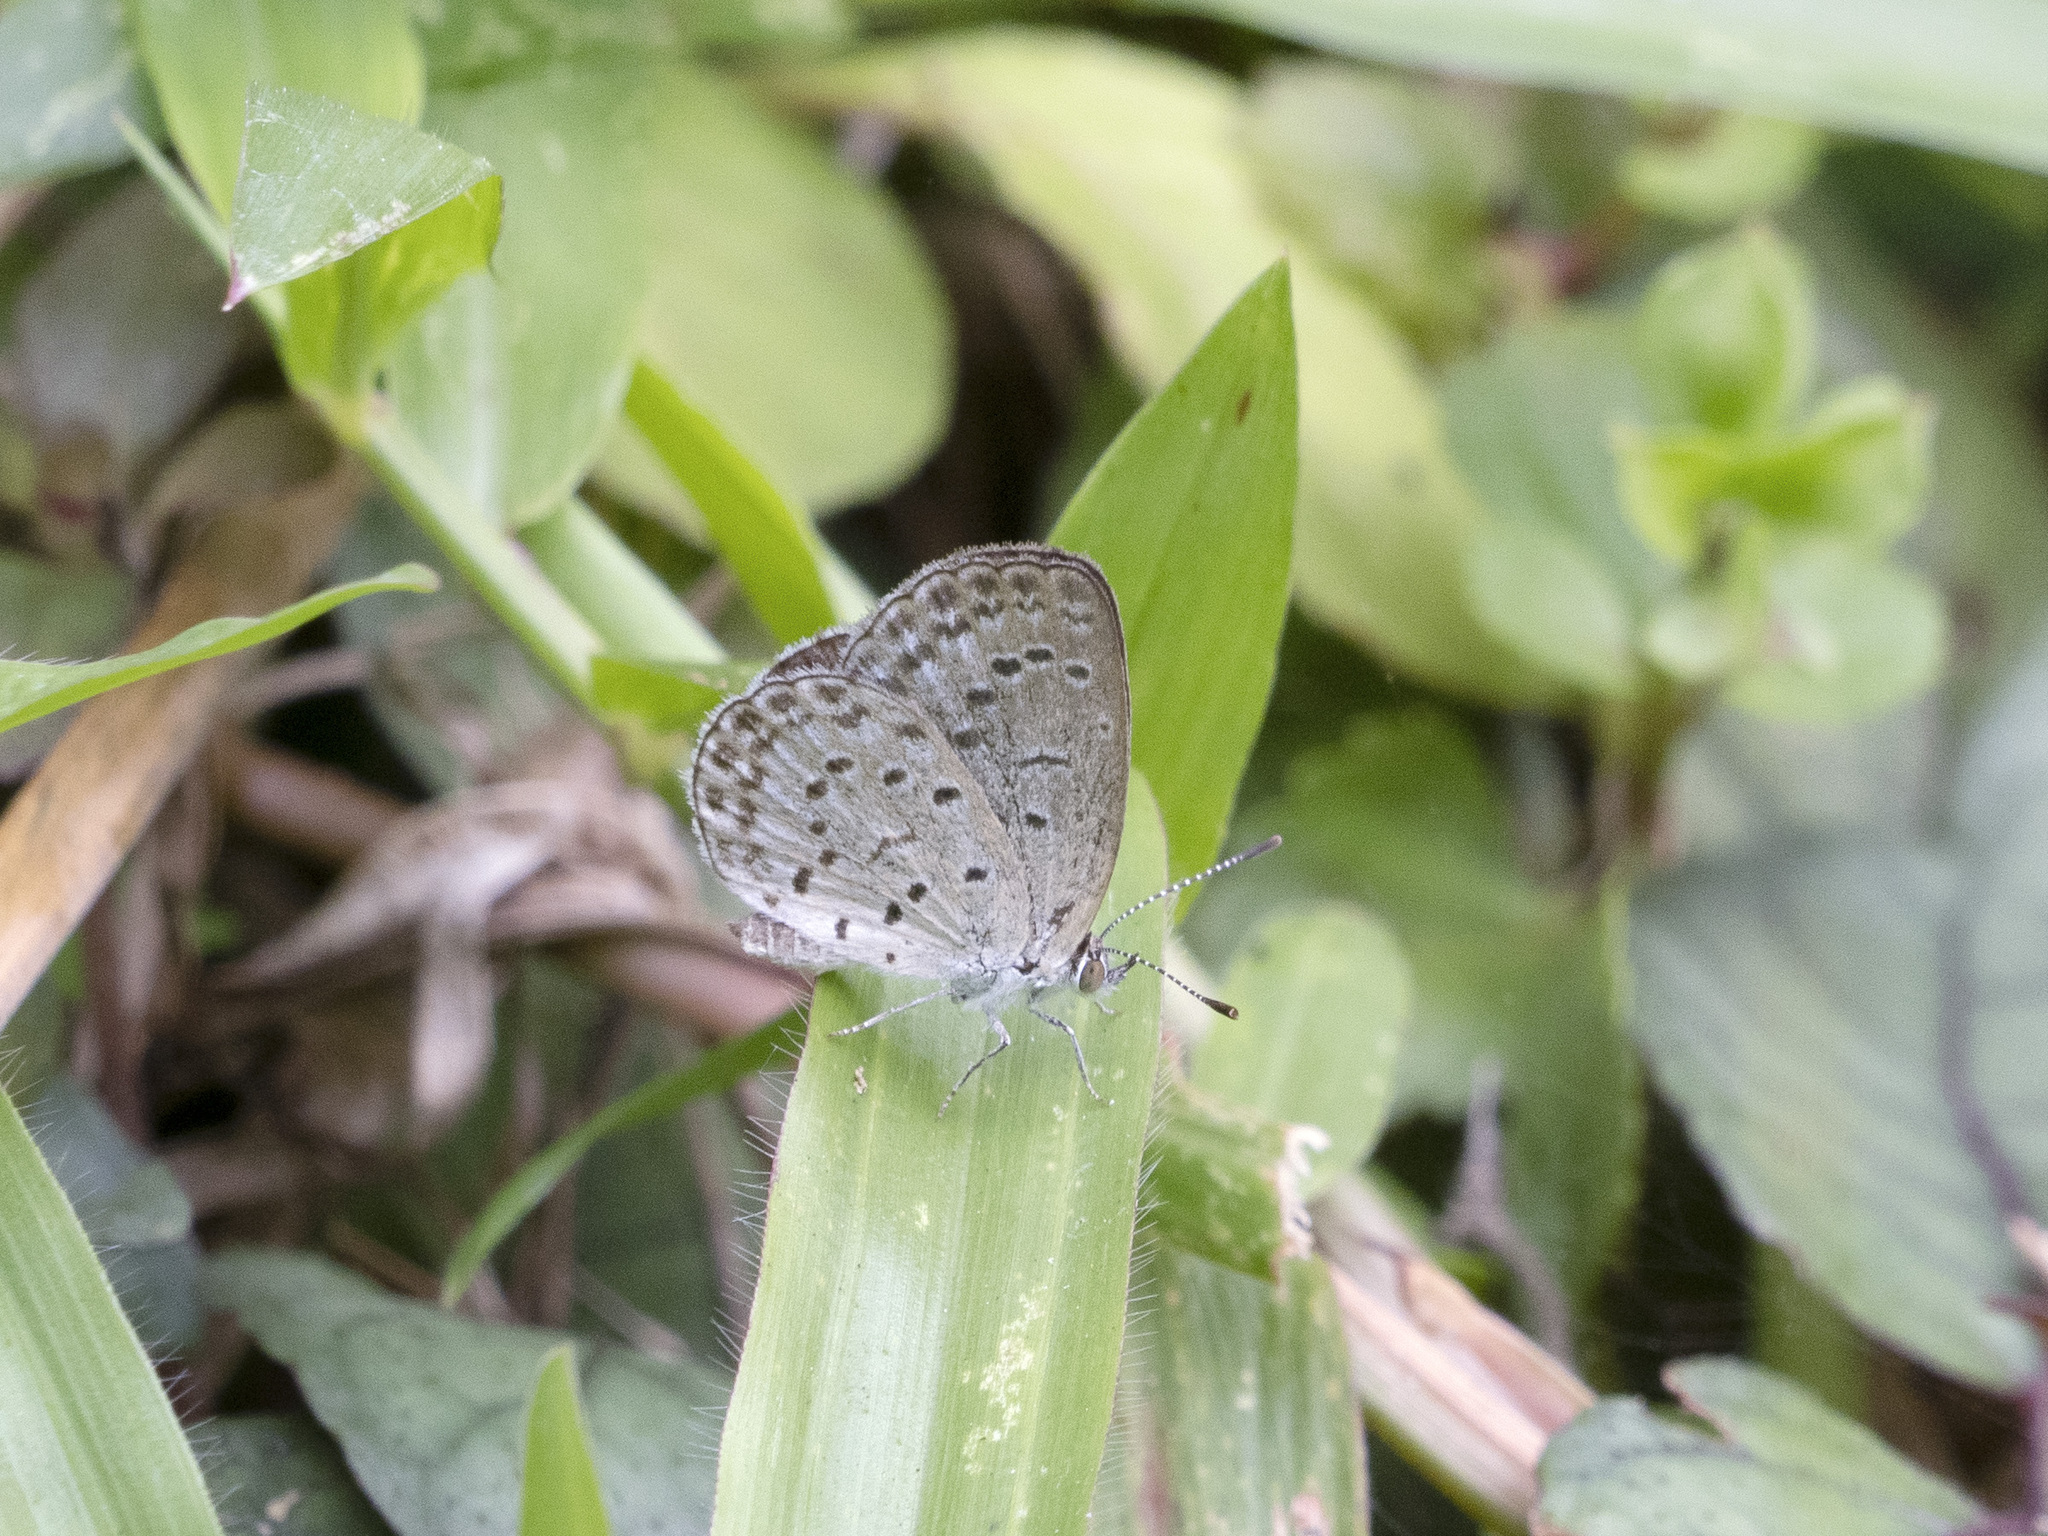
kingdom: Animalia
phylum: Arthropoda
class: Insecta
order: Lepidoptera
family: Lycaenidae
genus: Pseudozizeeria
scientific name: Pseudozizeeria maha
